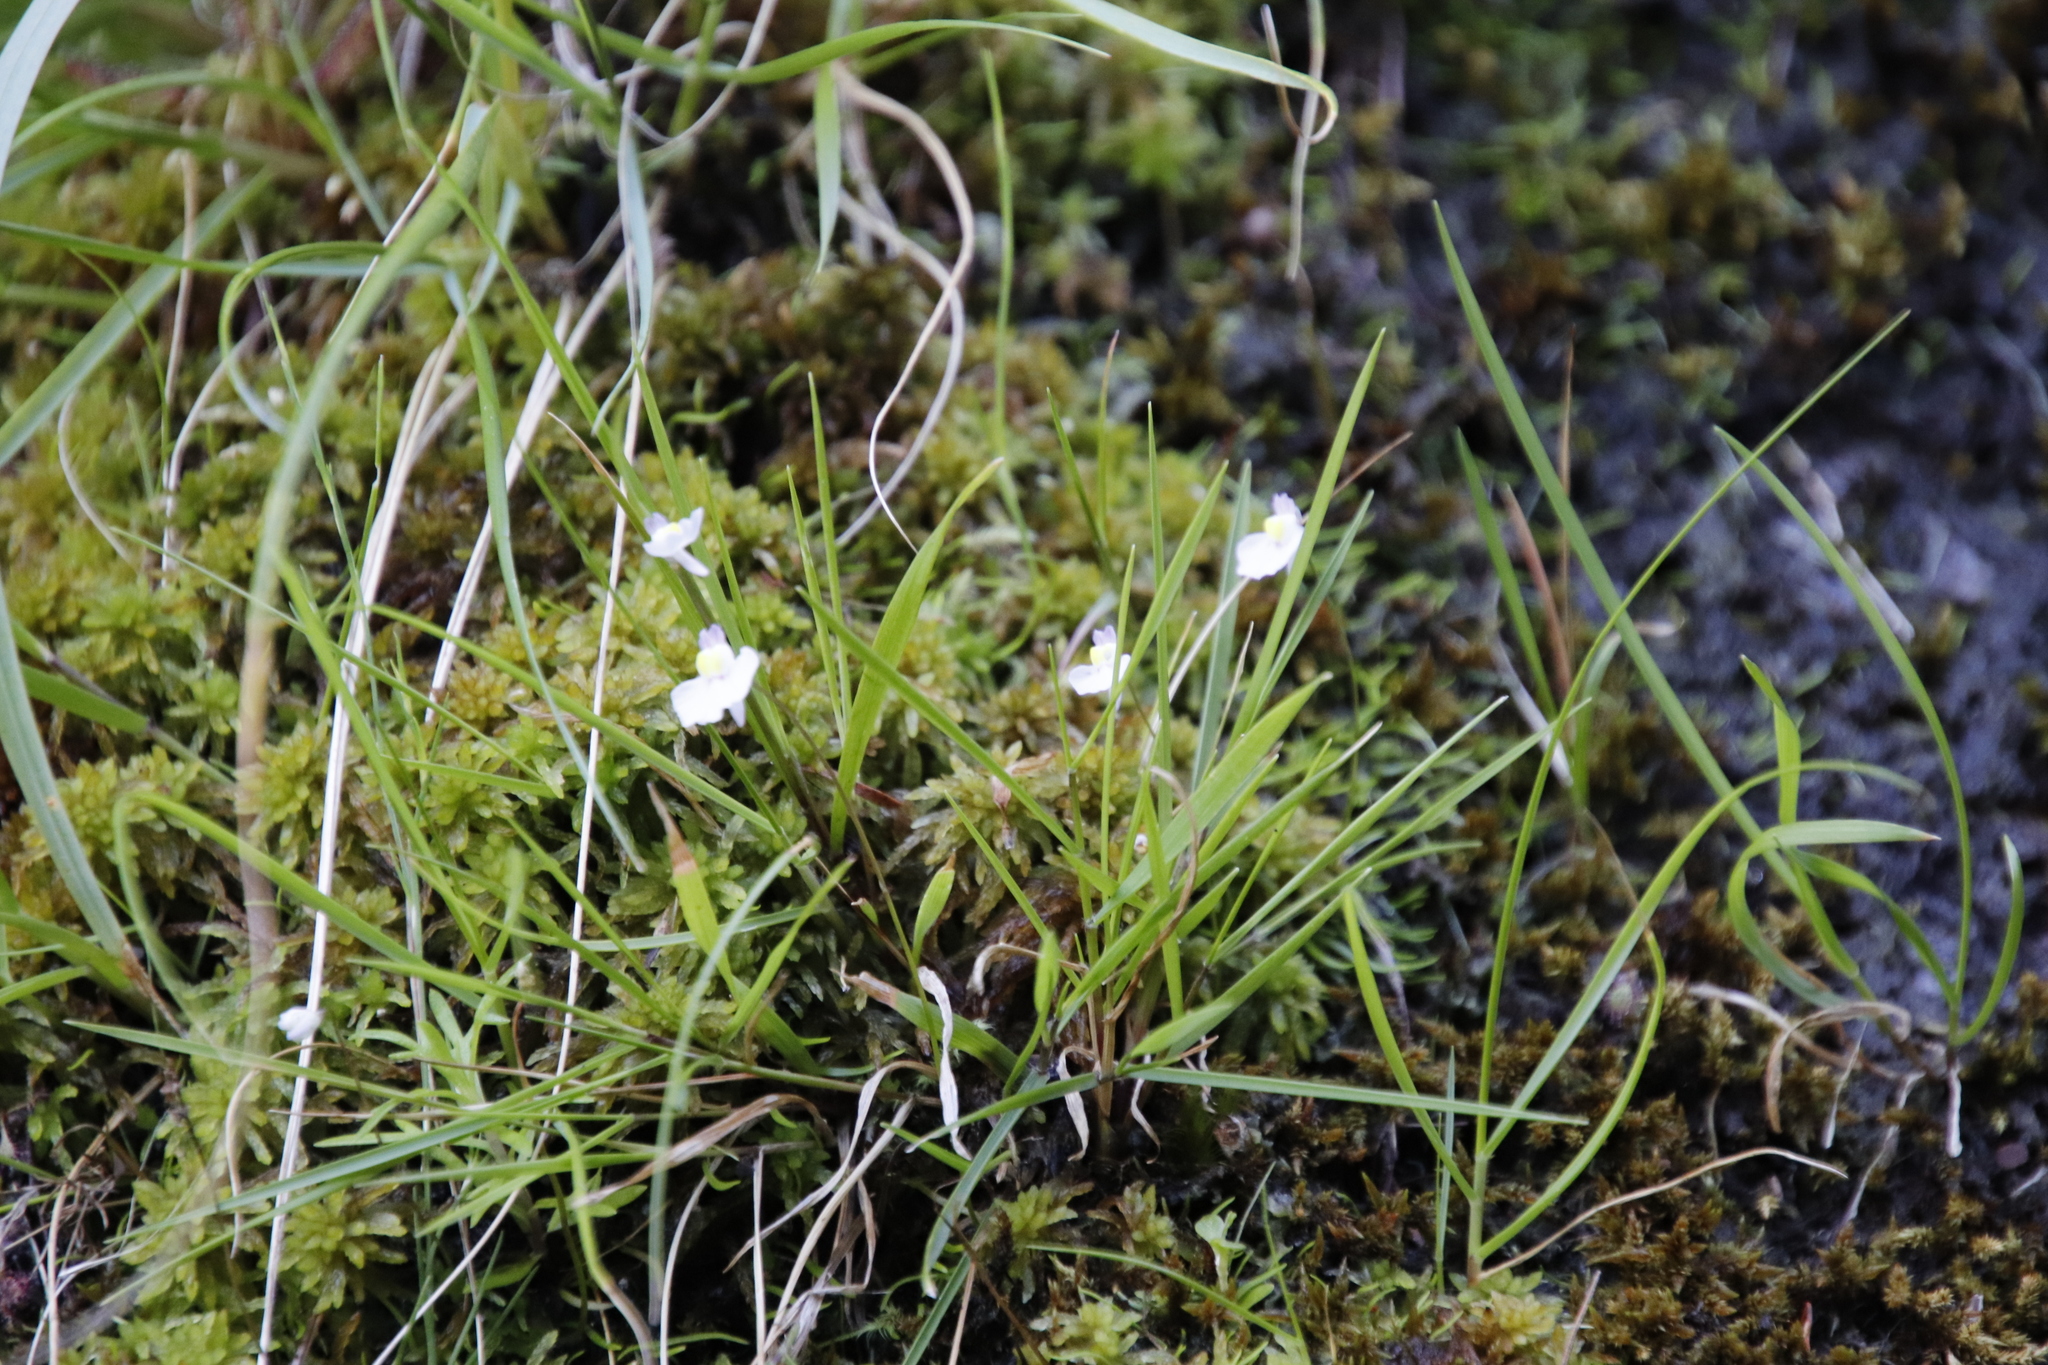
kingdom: Plantae
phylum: Tracheophyta
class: Magnoliopsida
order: Lamiales
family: Lentibulariaceae
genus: Utricularia
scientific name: Utricularia bisquamata
